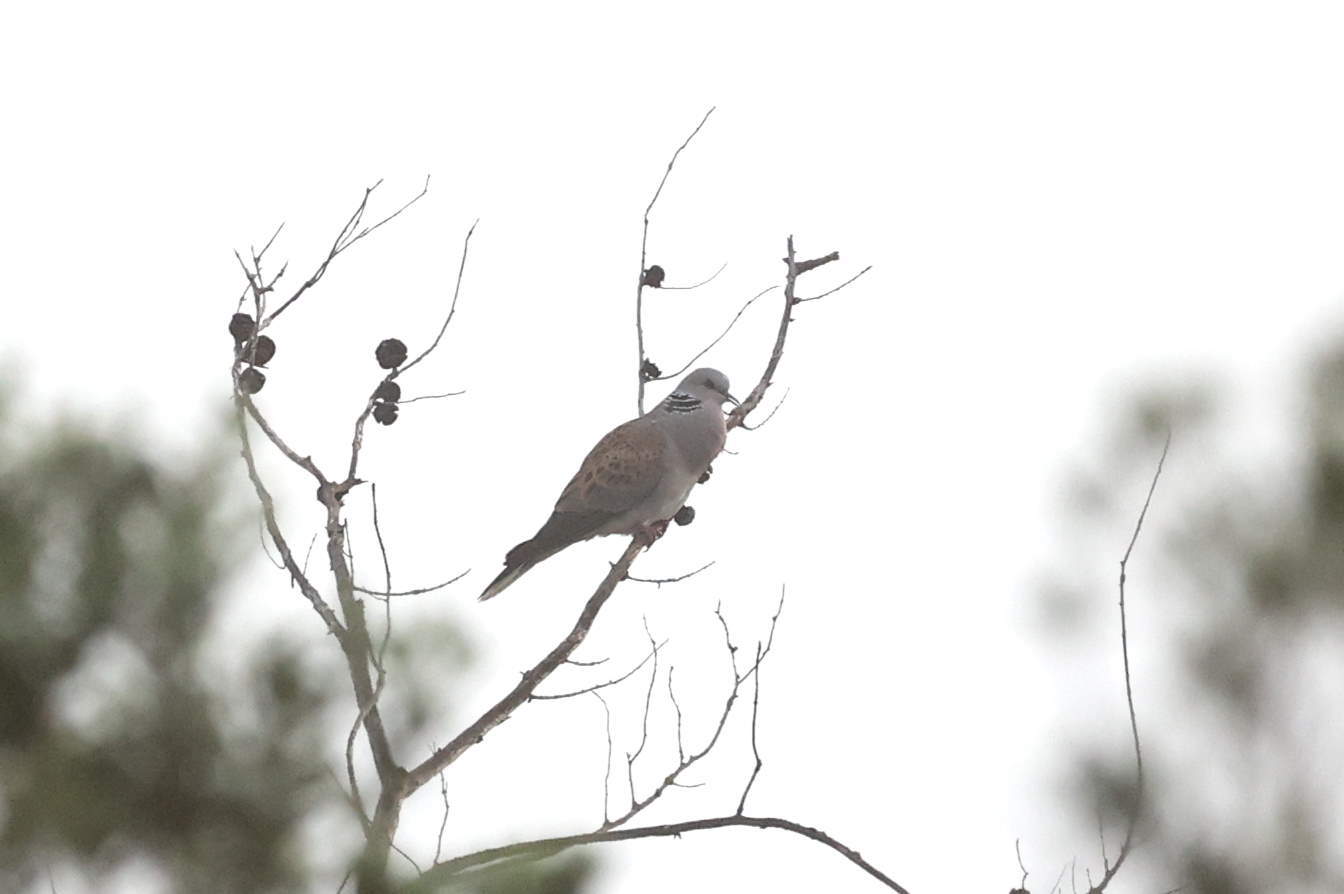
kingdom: Animalia
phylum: Chordata
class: Aves
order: Columbiformes
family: Columbidae
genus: Streptopelia
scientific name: Streptopelia turtur
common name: European turtle dove
